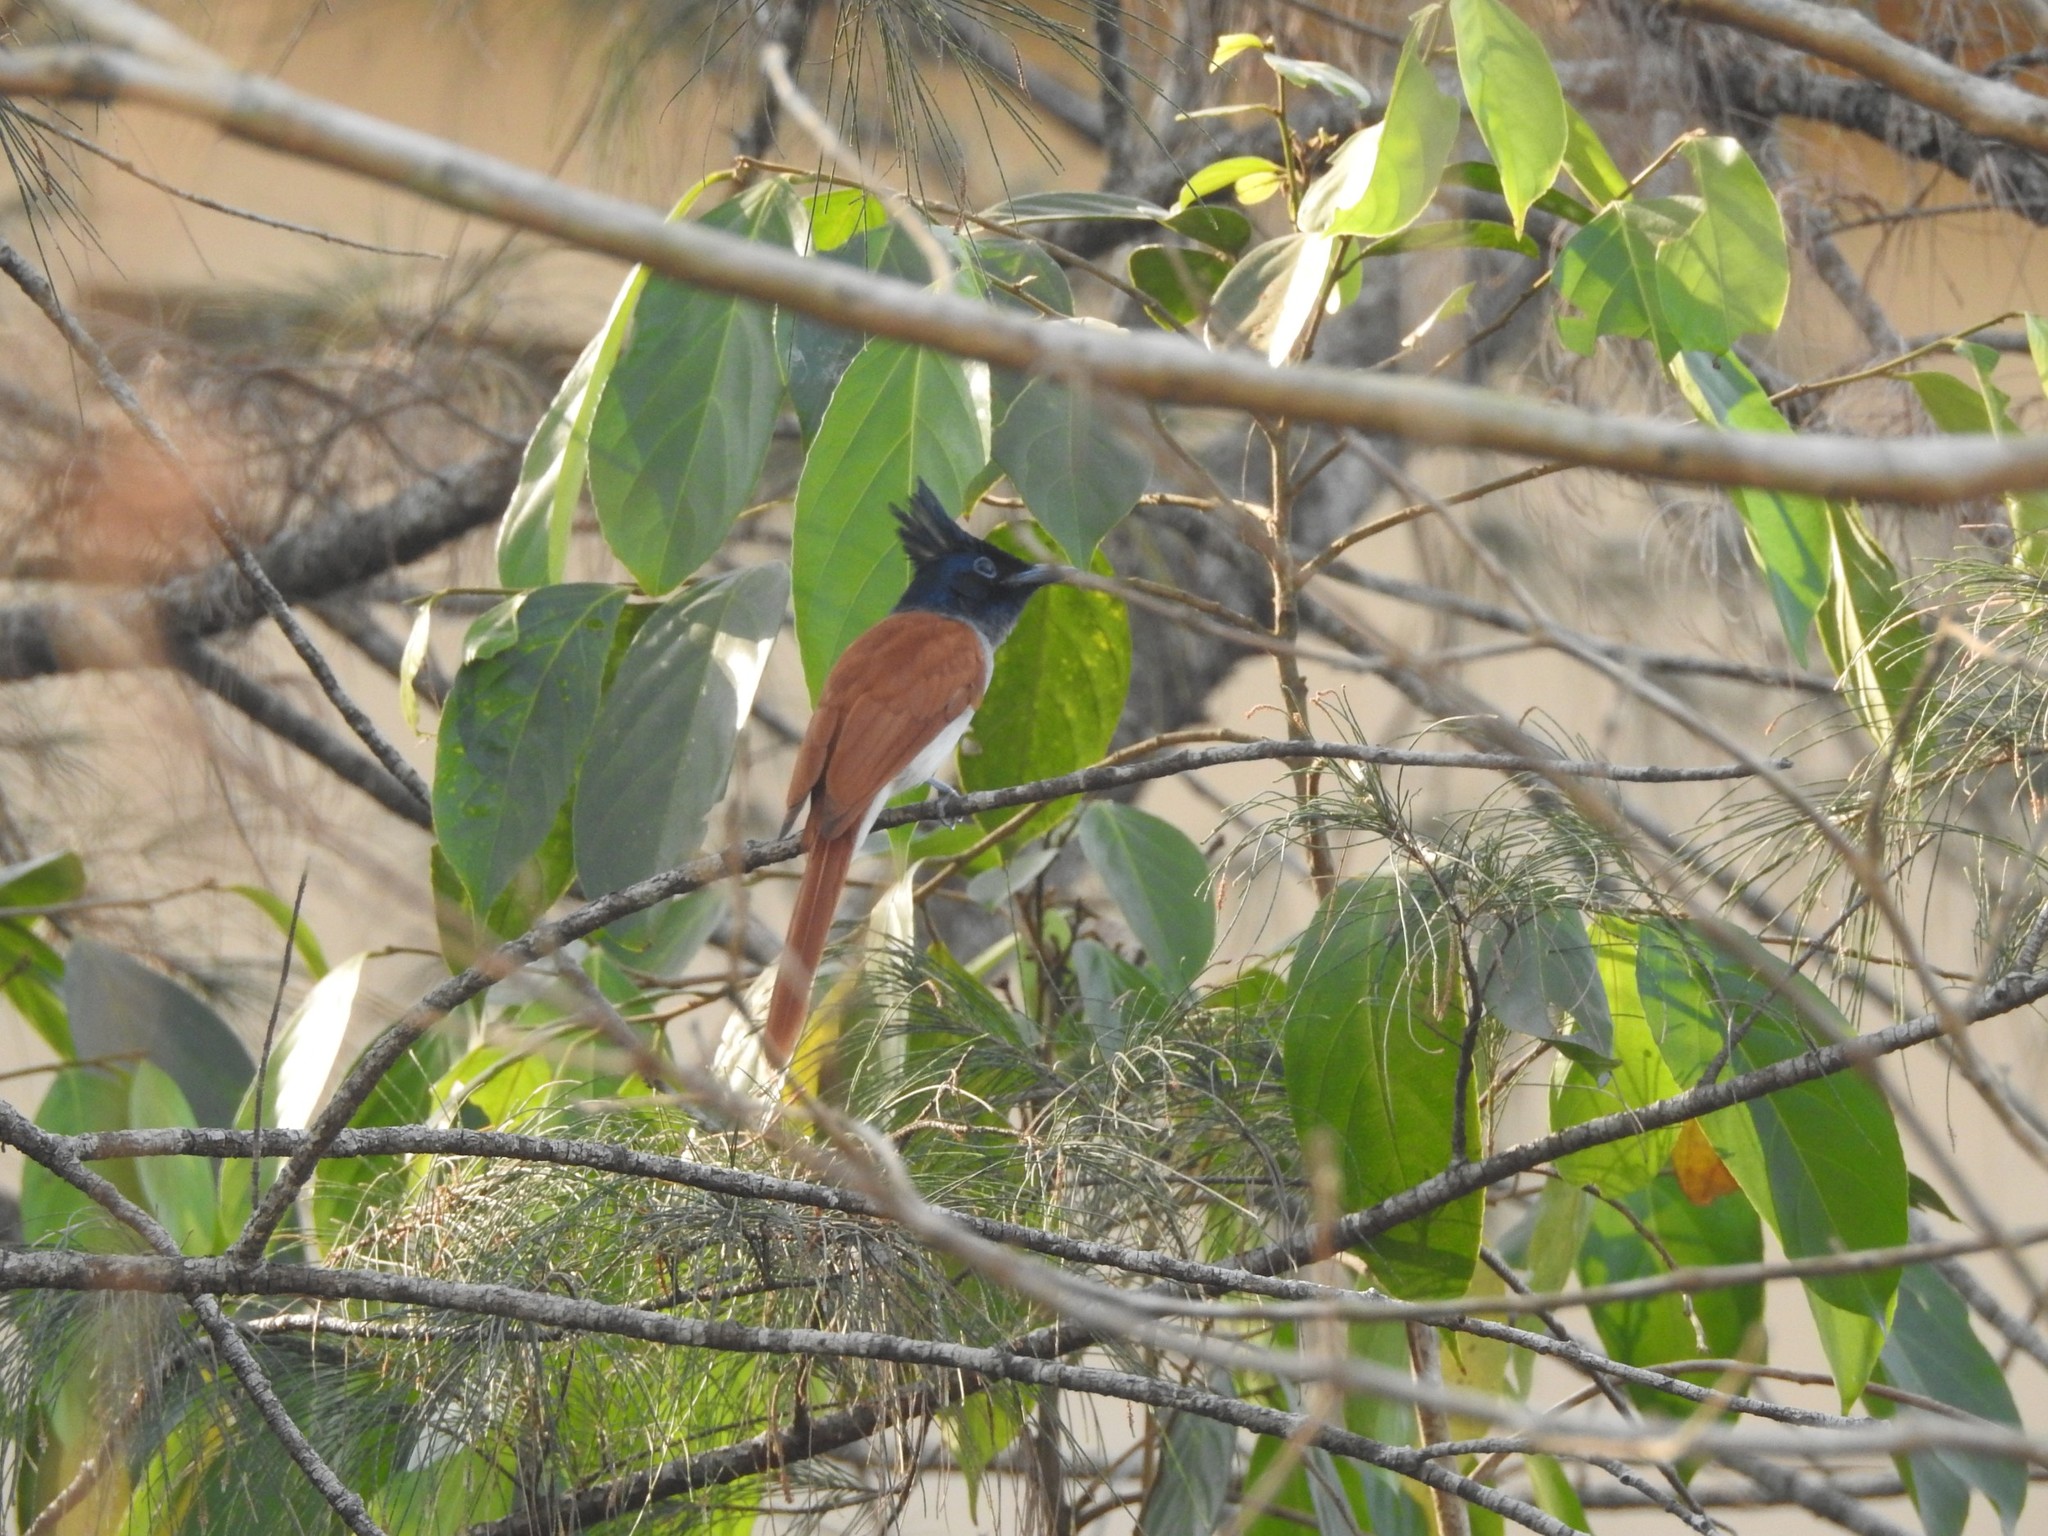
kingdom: Animalia
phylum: Chordata
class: Aves
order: Passeriformes
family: Monarchidae
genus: Terpsiphone
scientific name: Terpsiphone paradisi
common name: Indian paradise flycatcher
